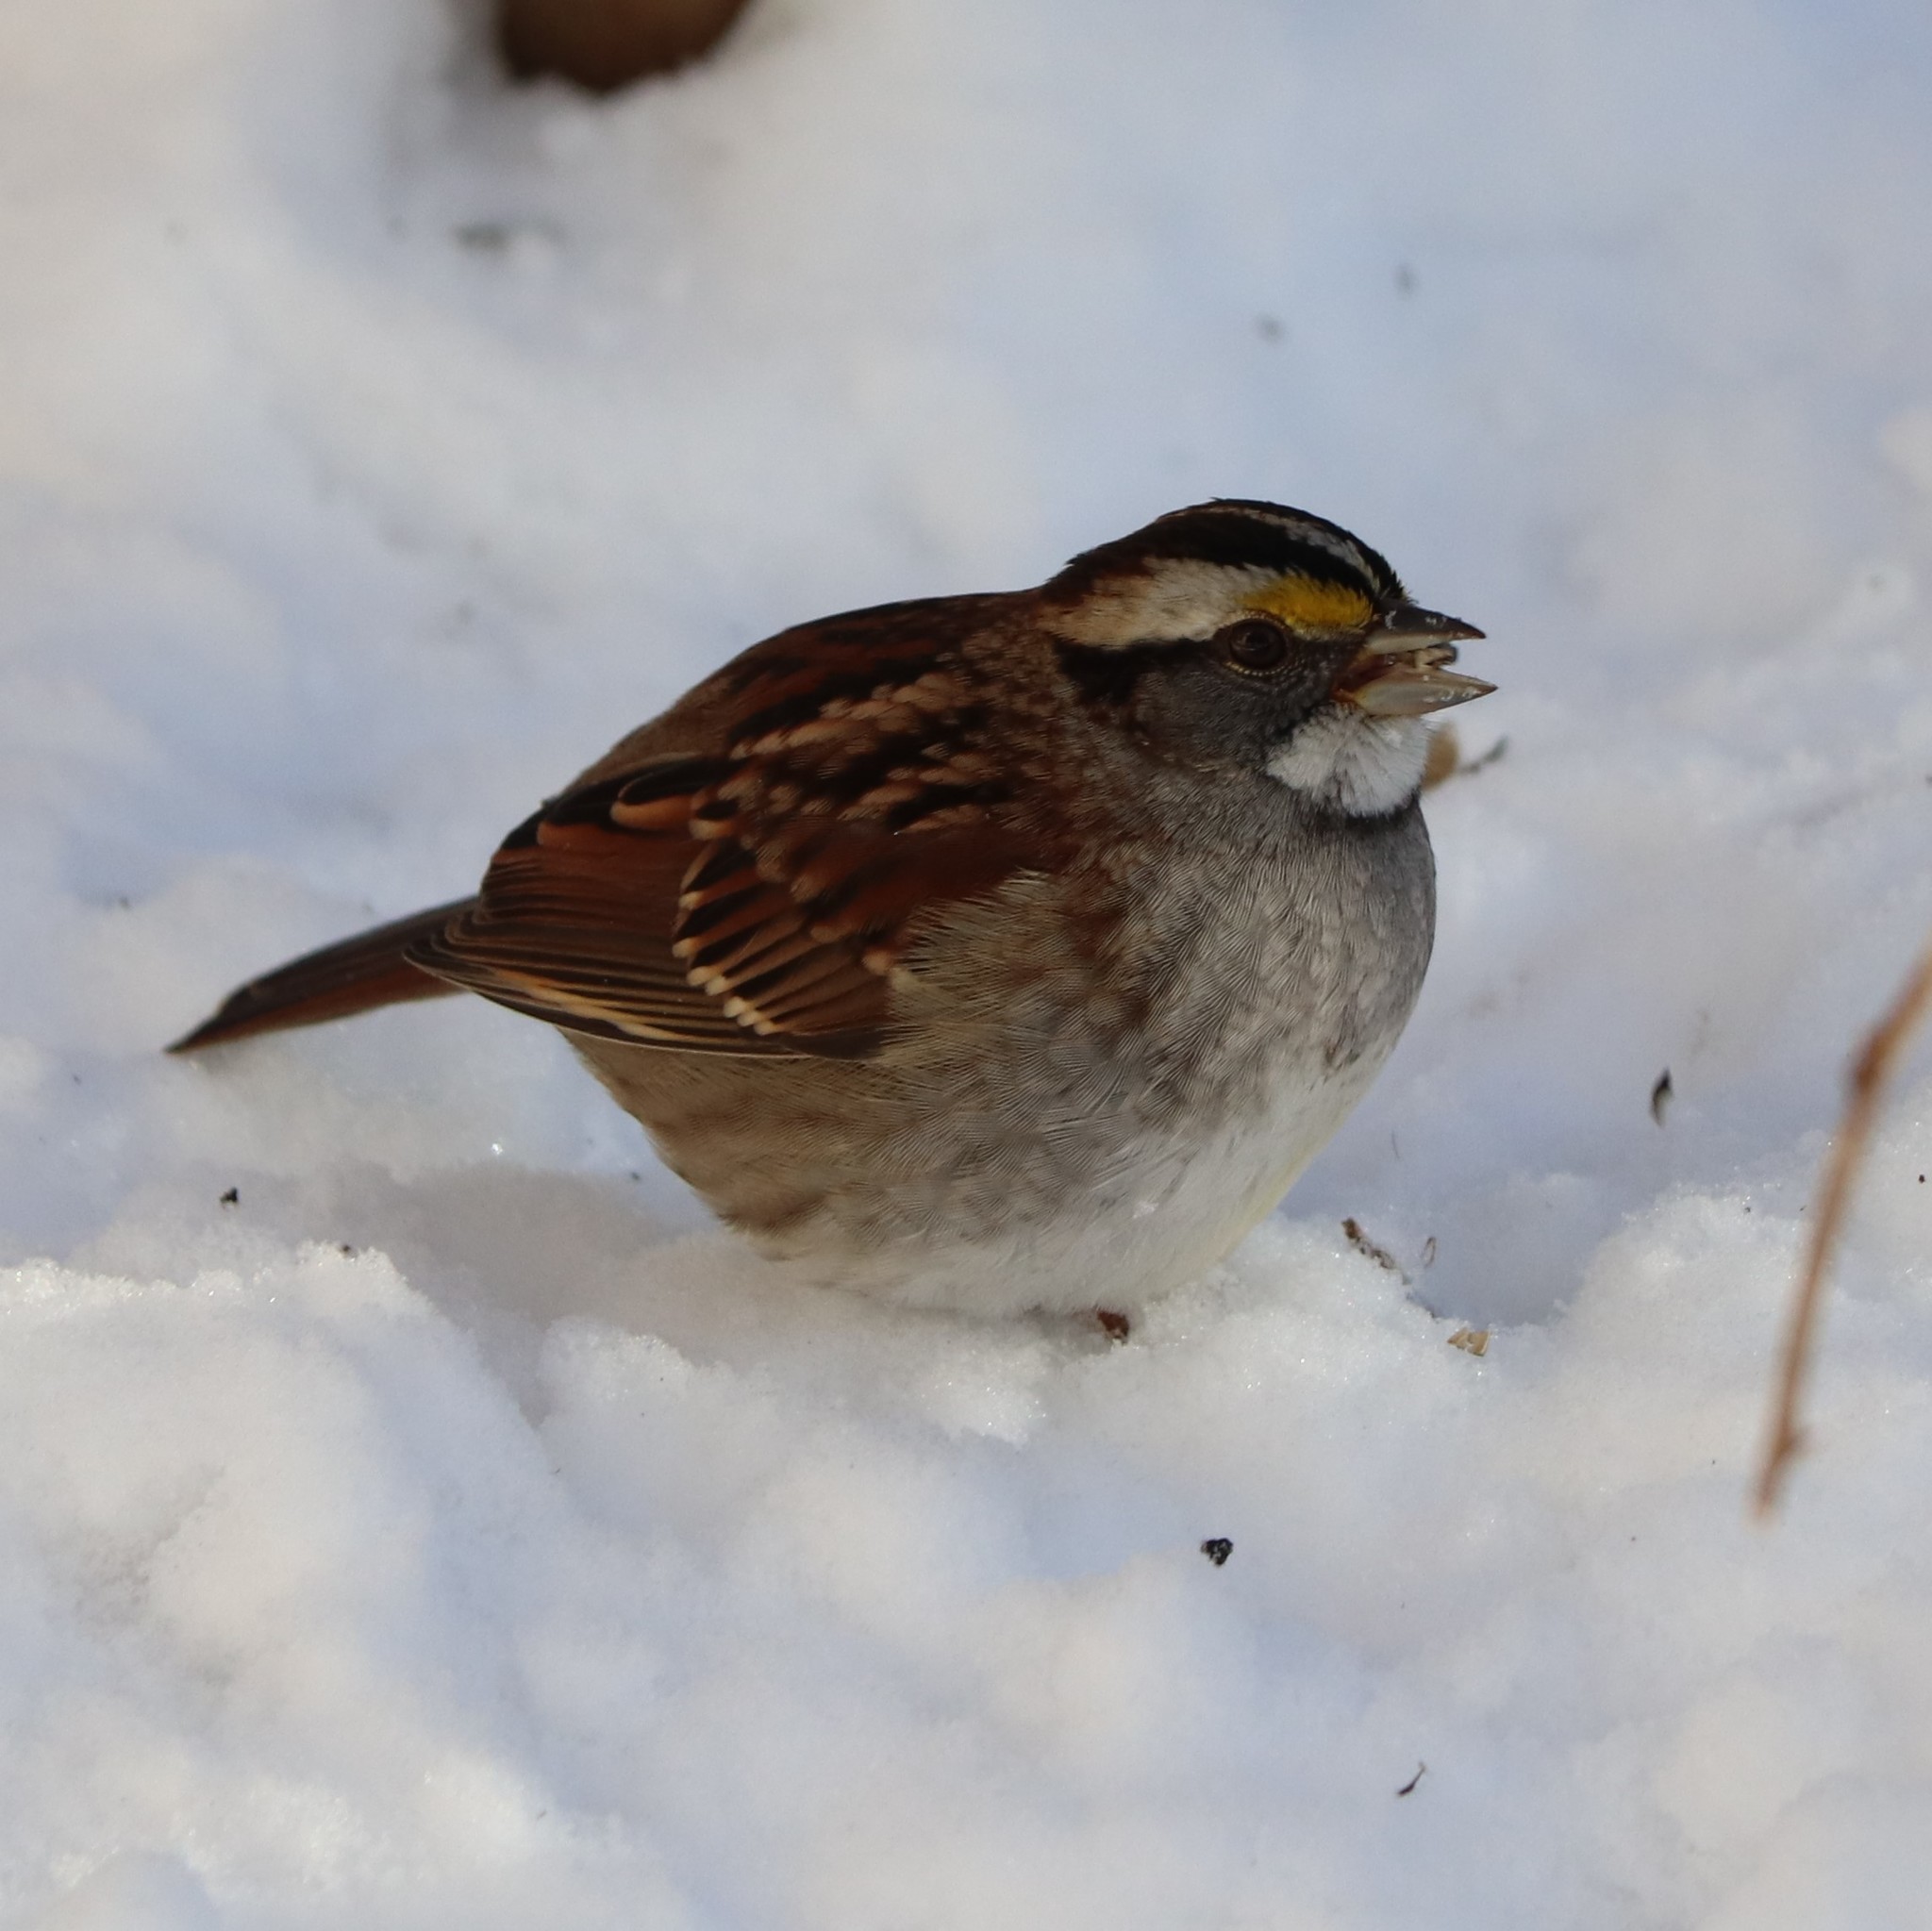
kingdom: Animalia
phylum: Chordata
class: Aves
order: Passeriformes
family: Passerellidae
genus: Zonotrichia
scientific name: Zonotrichia albicollis
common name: White-throated sparrow
